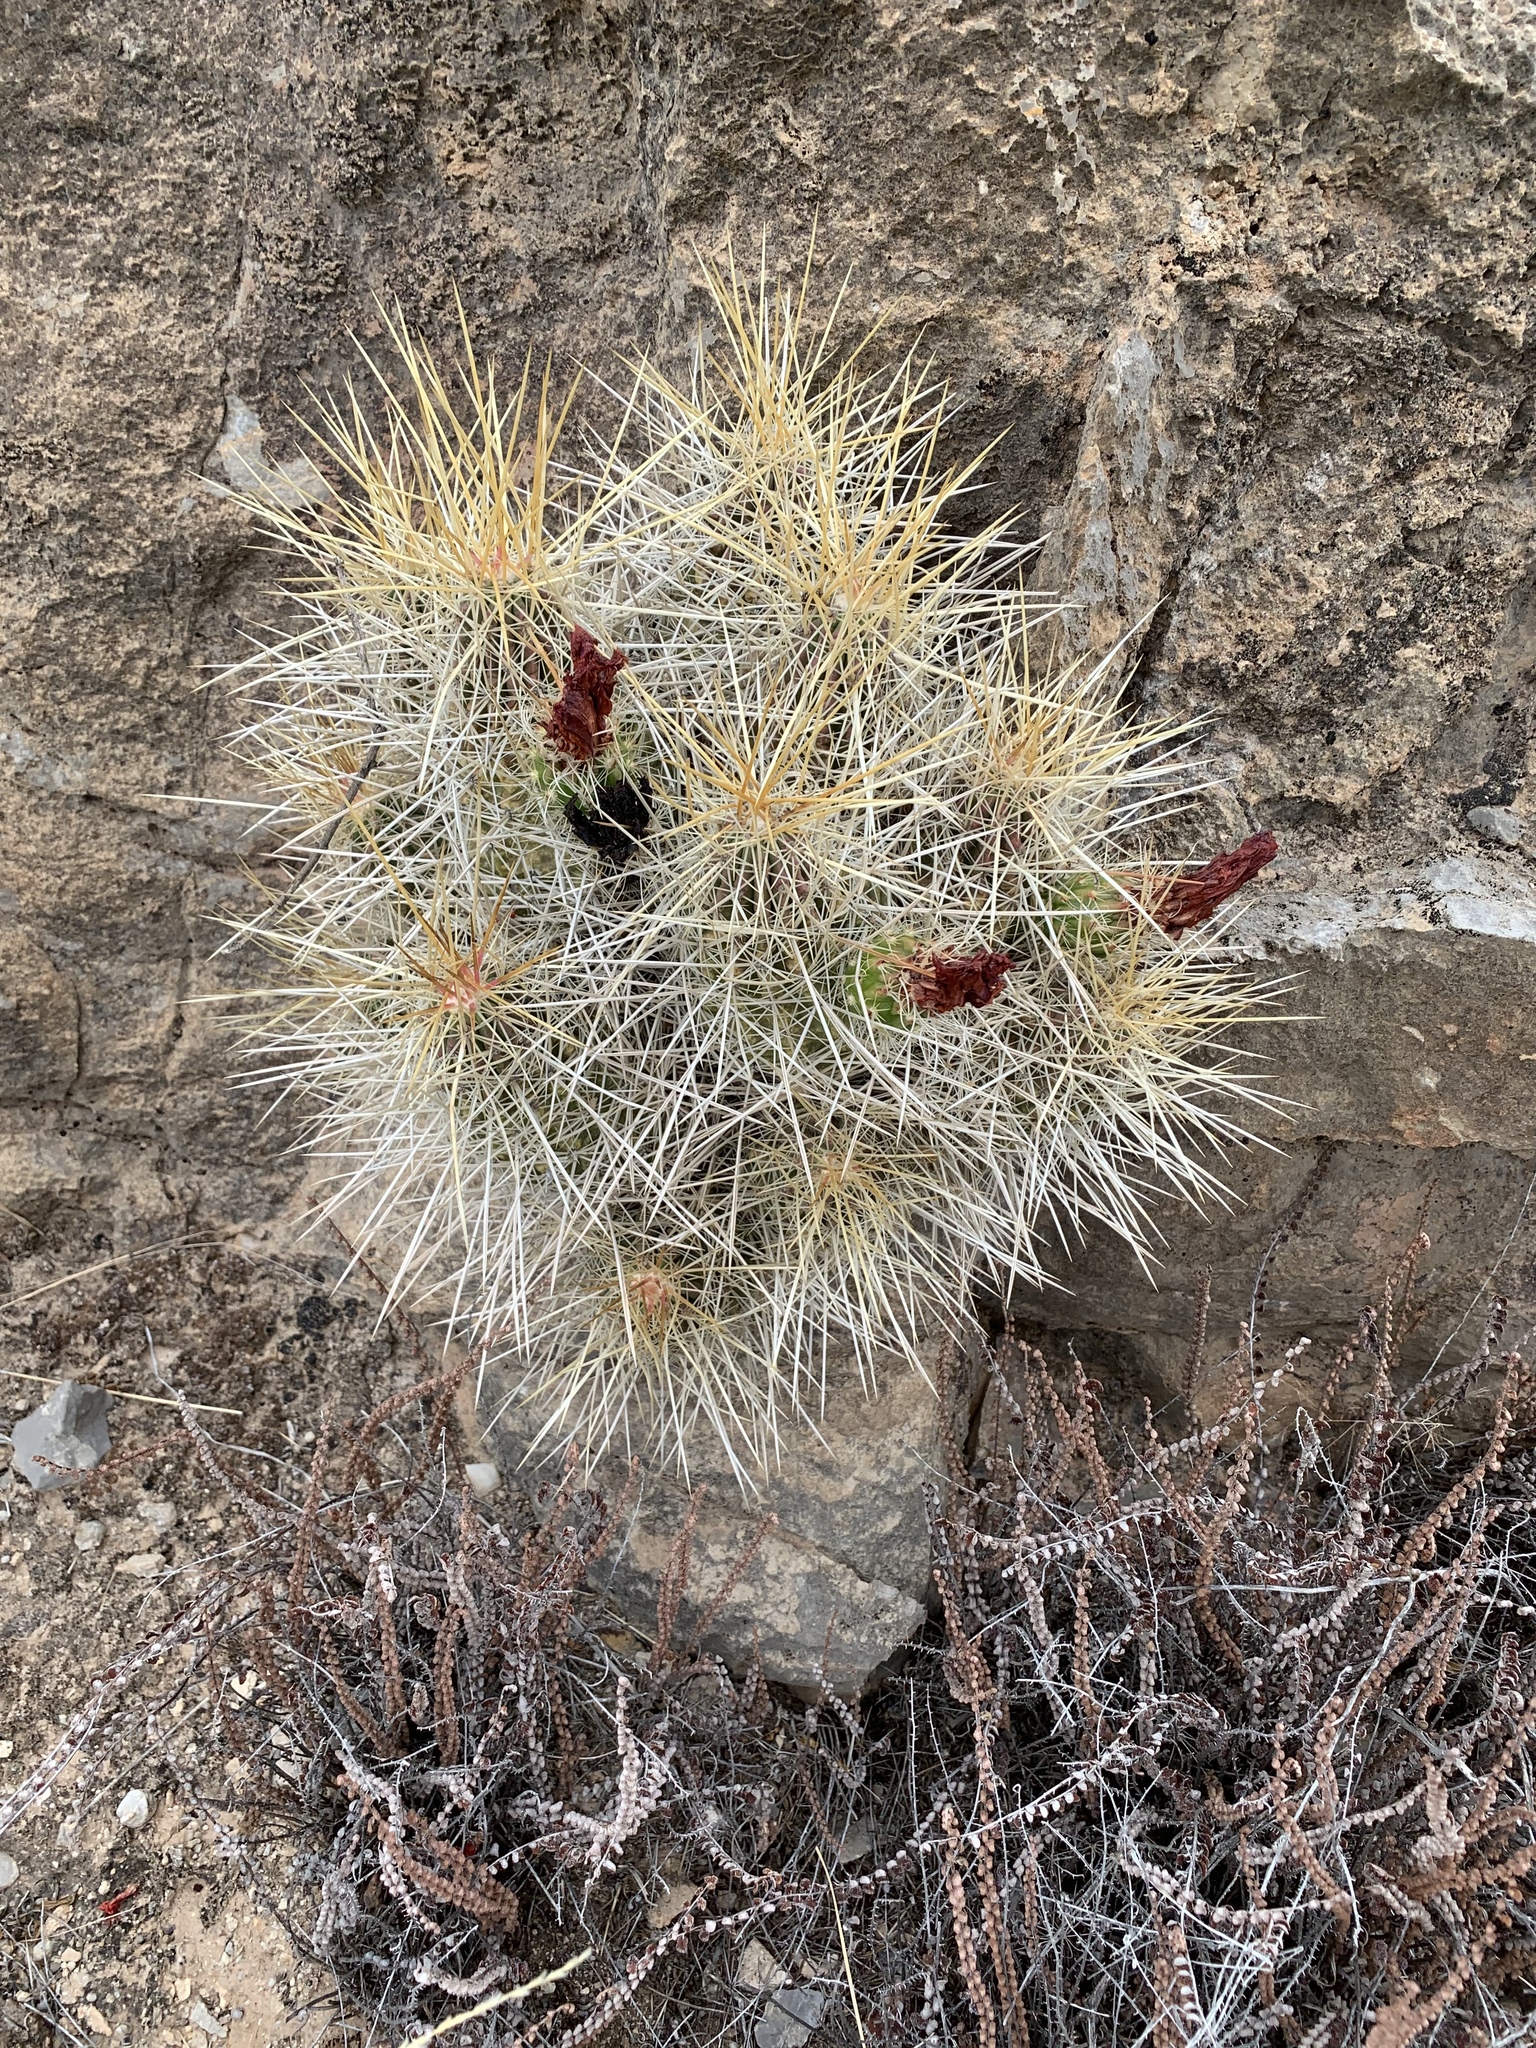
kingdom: Plantae
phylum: Tracheophyta
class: Magnoliopsida
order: Caryophyllales
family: Cactaceae
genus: Echinocereus
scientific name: Echinocereus stramineus
